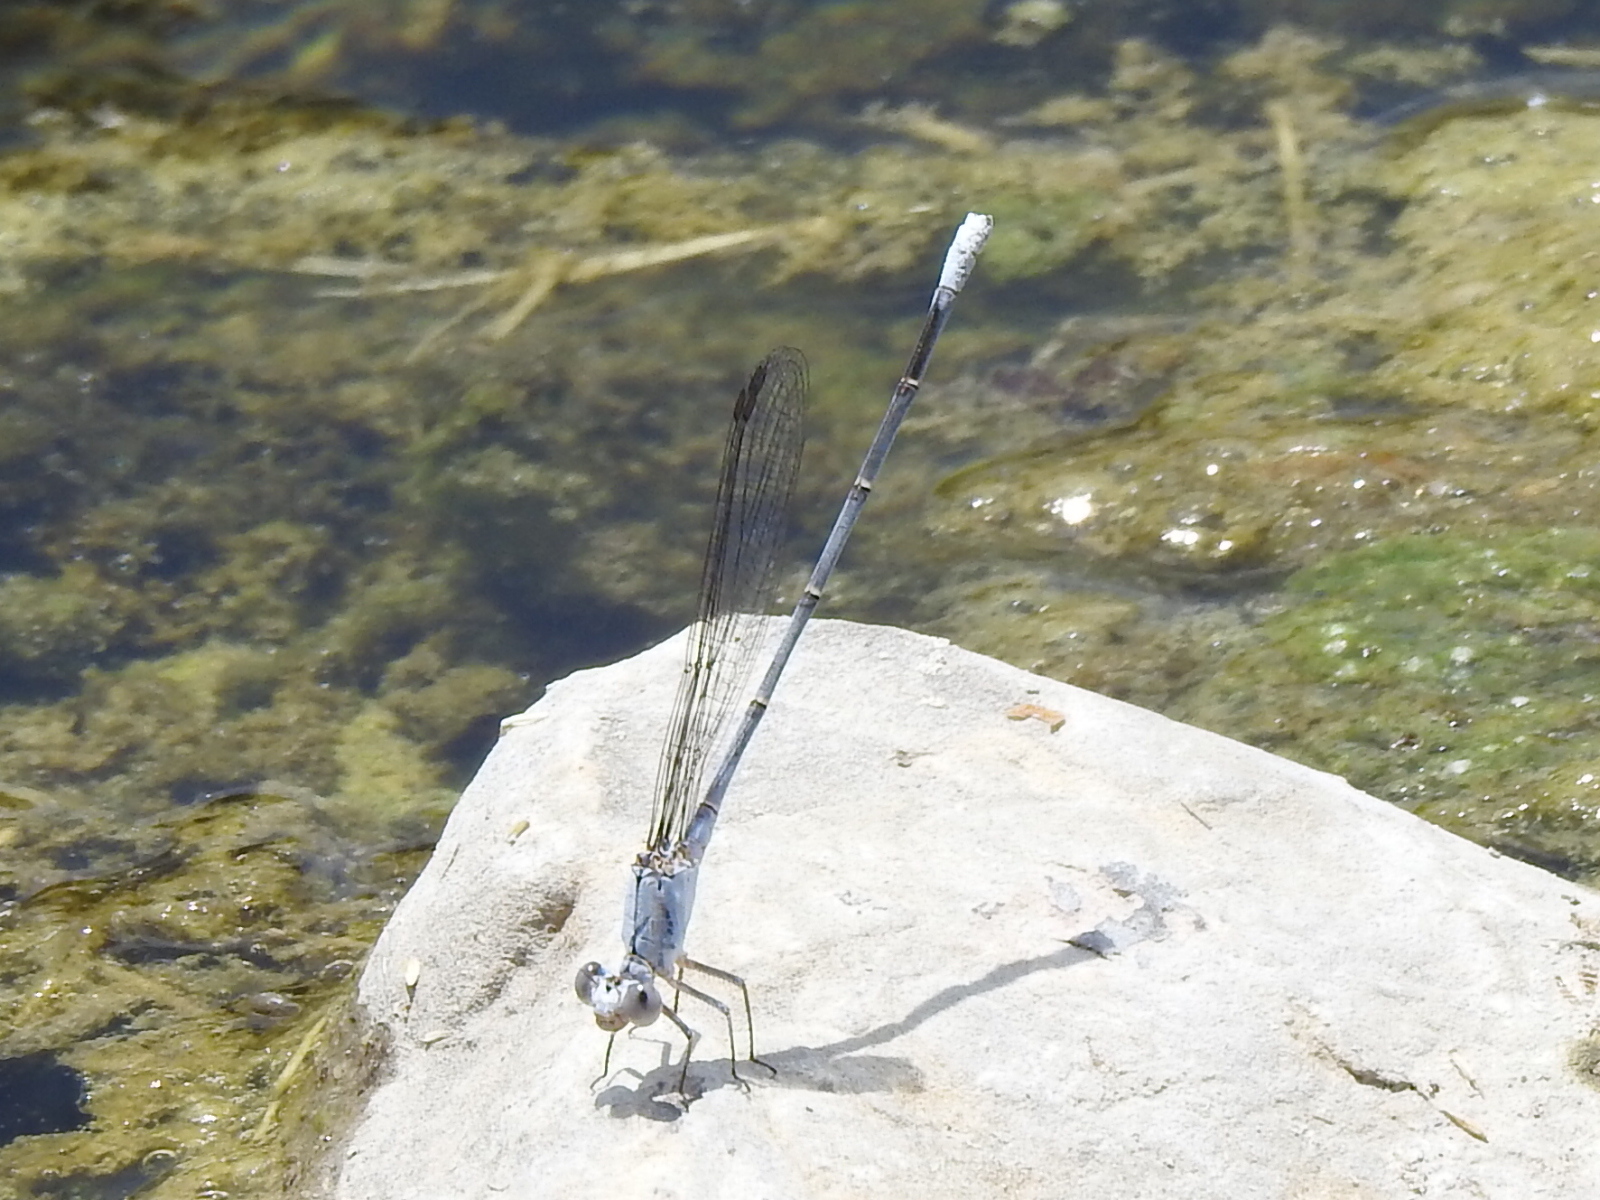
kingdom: Animalia
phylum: Arthropoda
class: Insecta
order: Odonata
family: Coenagrionidae
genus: Argia
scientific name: Argia moesta
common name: Powdered dancer
